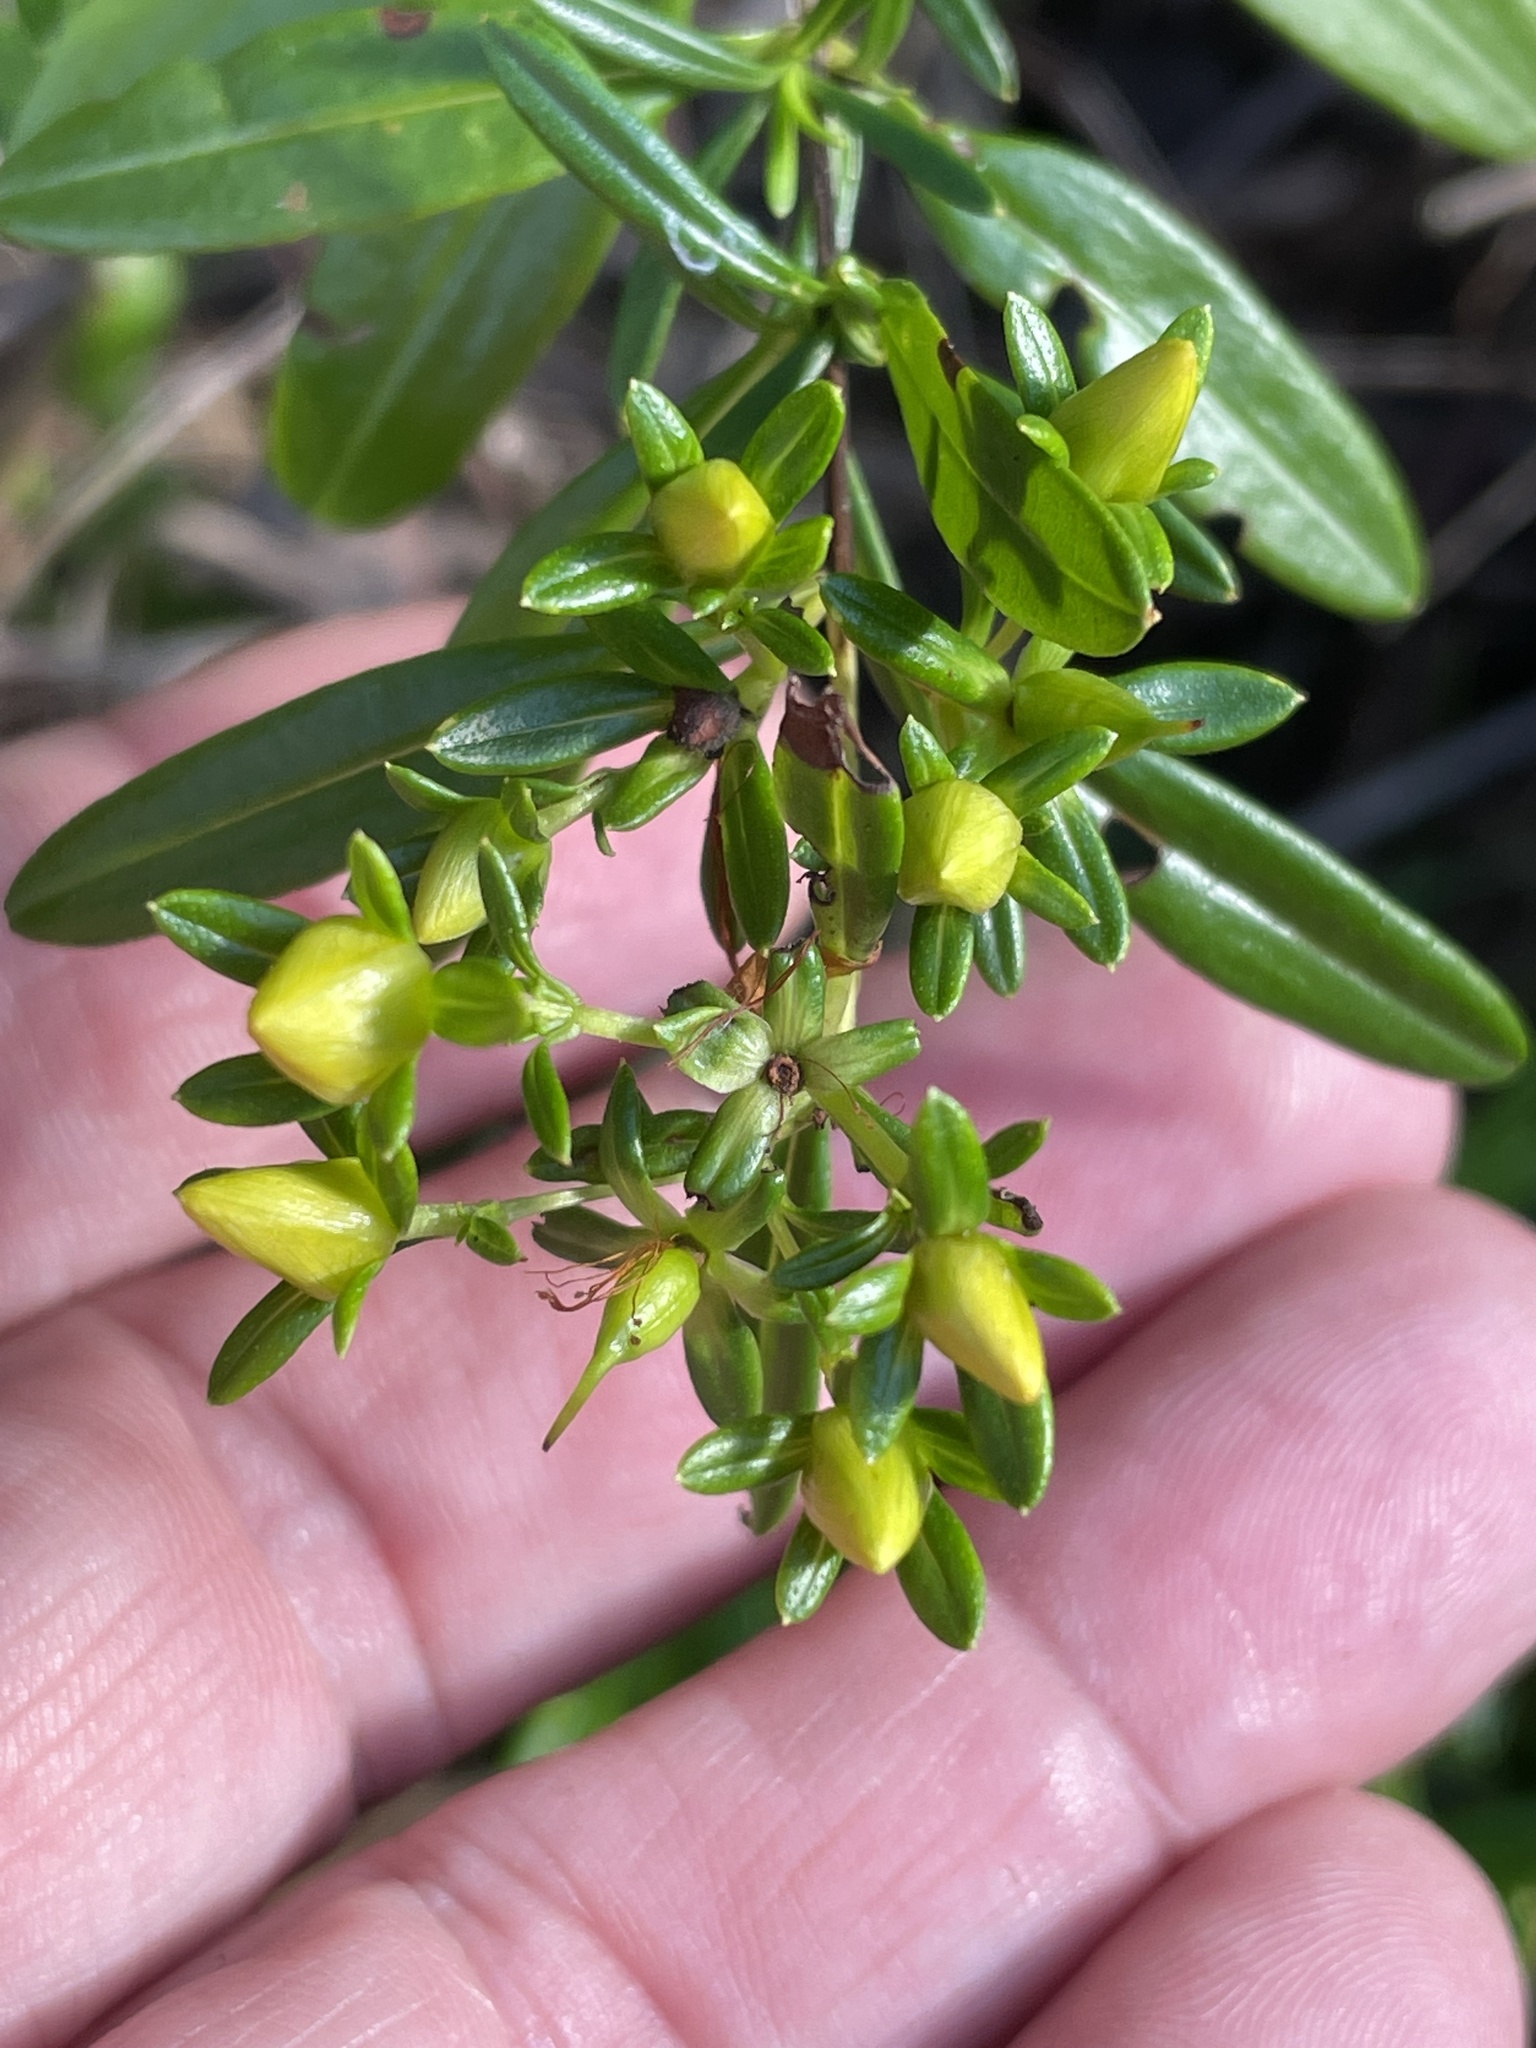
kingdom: Plantae
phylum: Tracheophyta
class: Magnoliopsida
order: Malpighiales
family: Hypericaceae
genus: Hypericum
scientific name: Hypericum densiflorum
